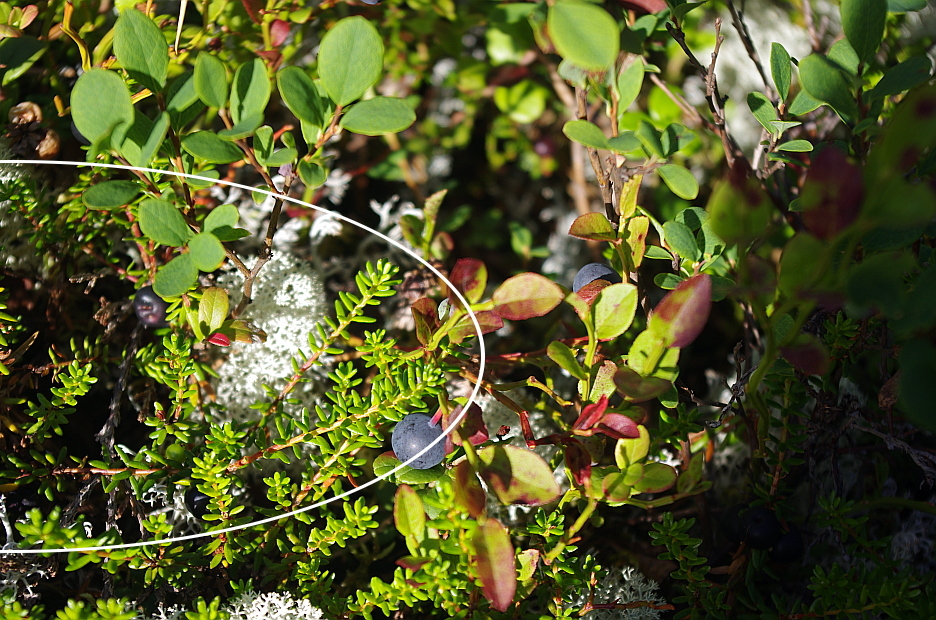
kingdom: Plantae
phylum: Tracheophyta
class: Magnoliopsida
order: Ericales
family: Ericaceae
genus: Empetrum
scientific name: Empetrum nigrum
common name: Black crowberry
